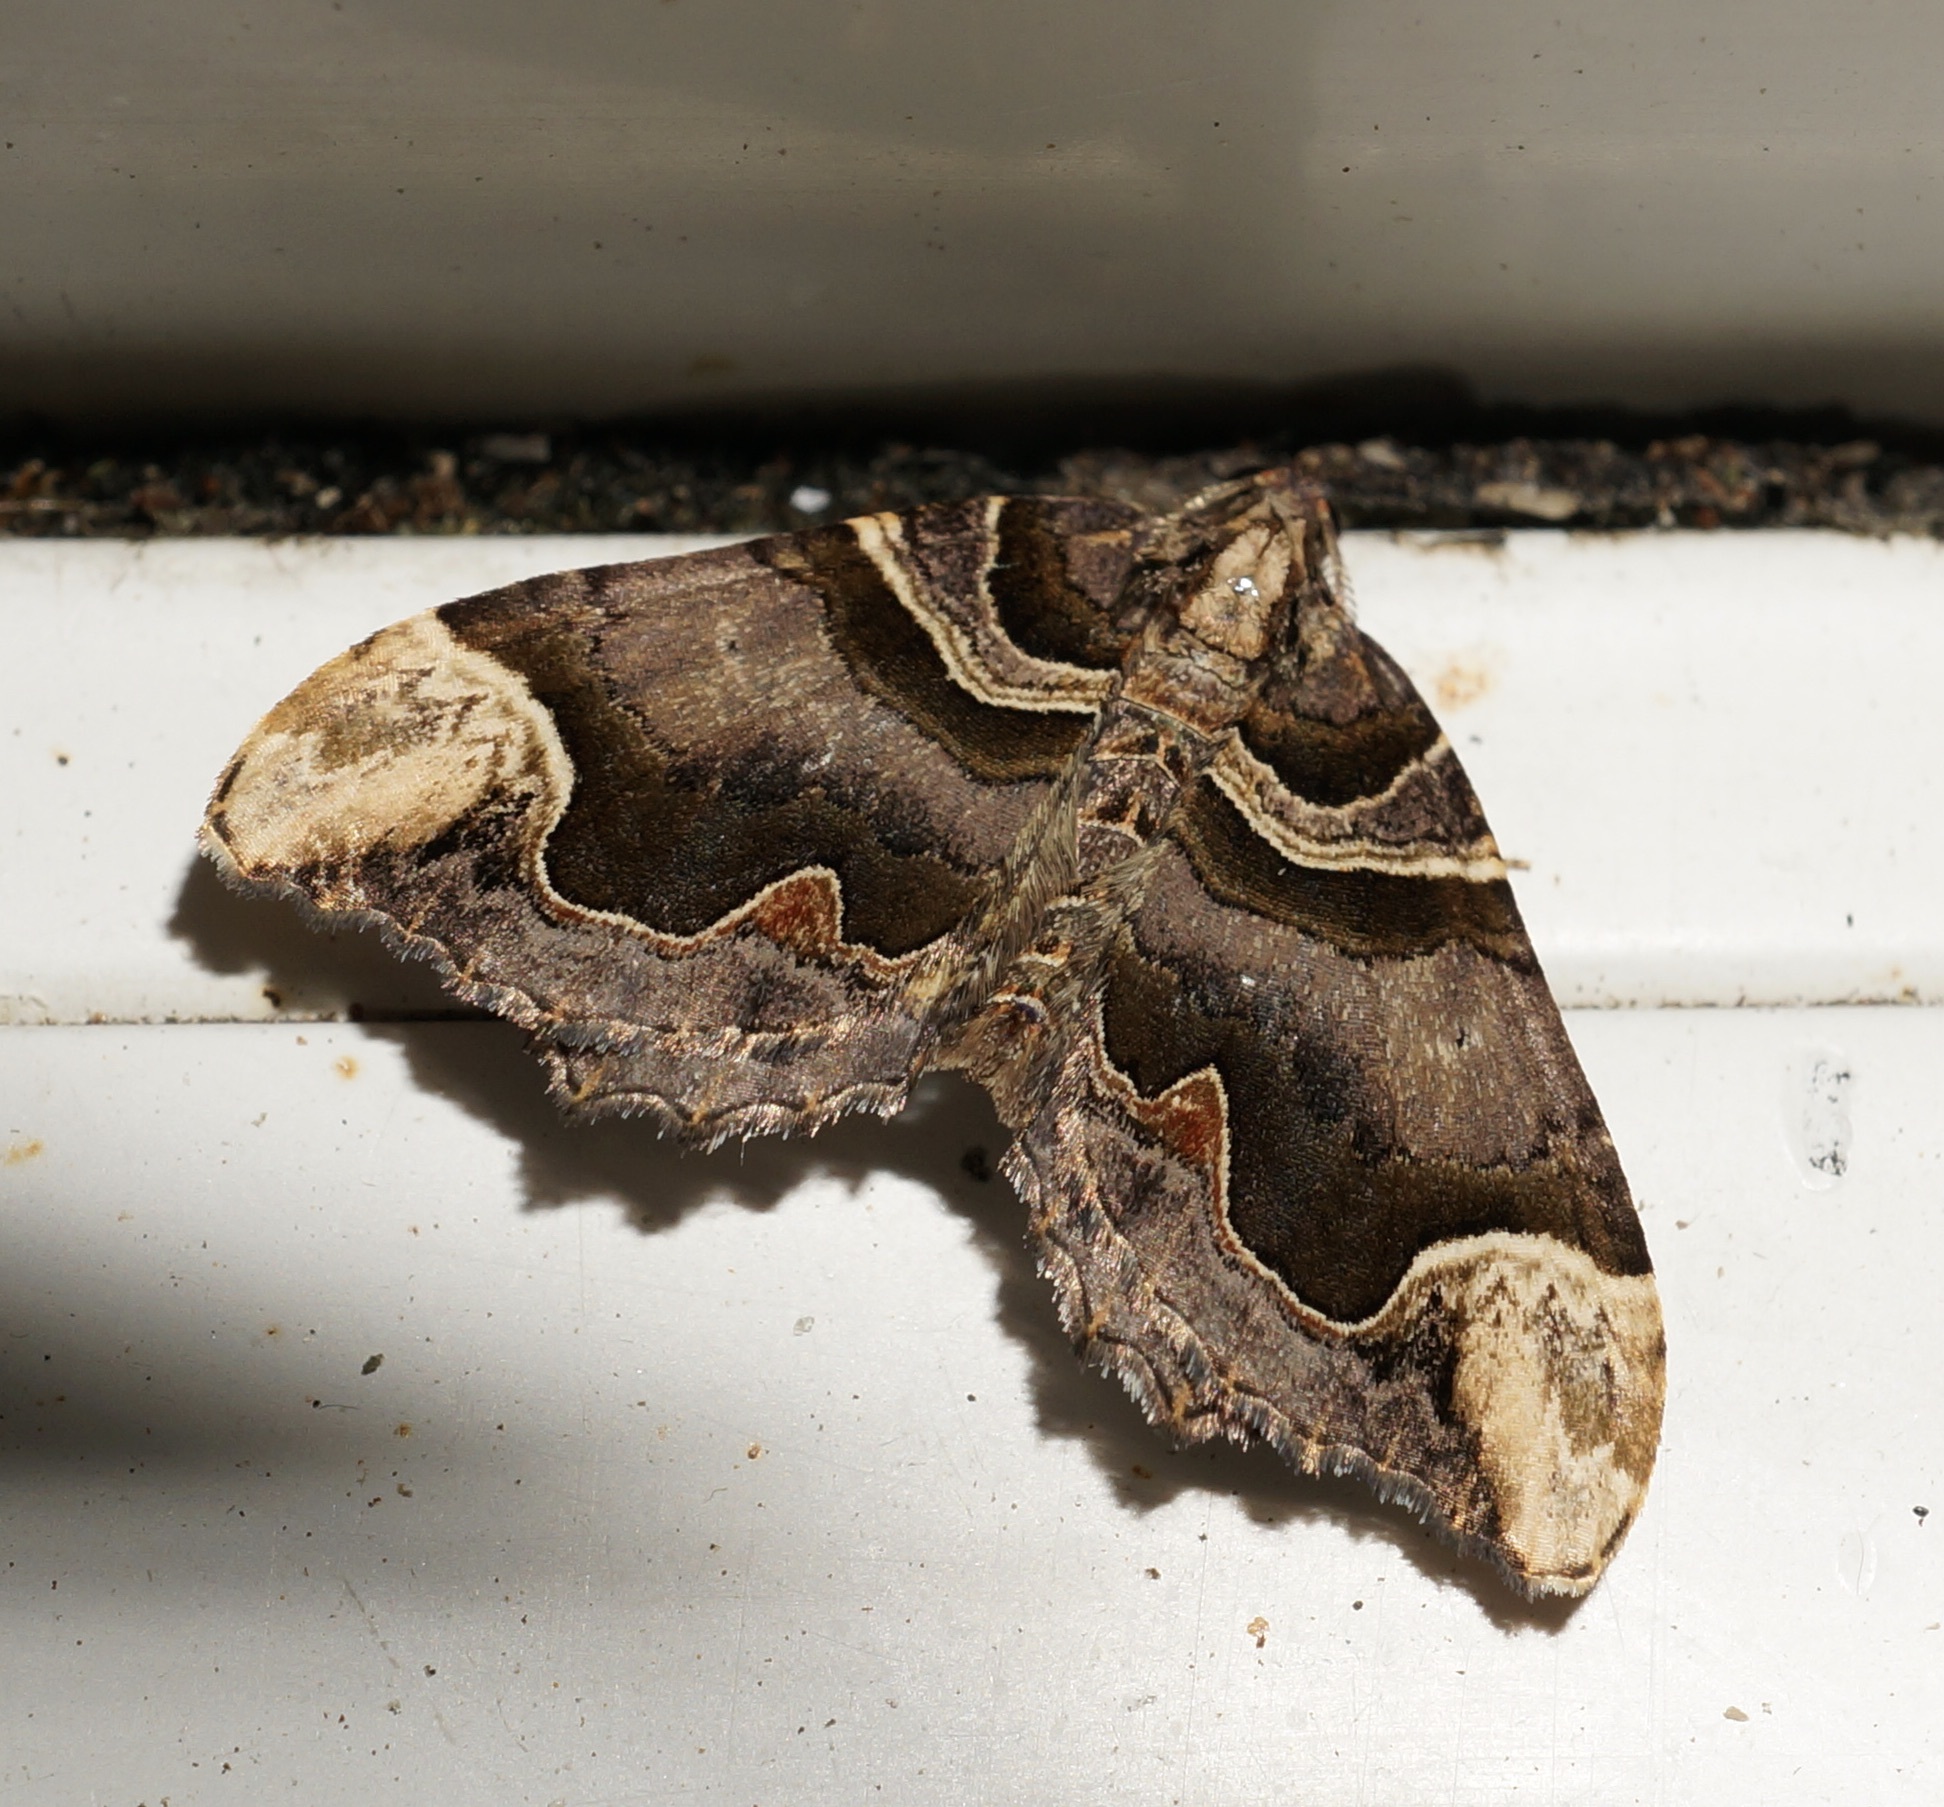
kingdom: Animalia
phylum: Arthropoda
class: Insecta
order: Lepidoptera
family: Geometridae
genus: Asaphodes
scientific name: Asaphodes chlamydota
